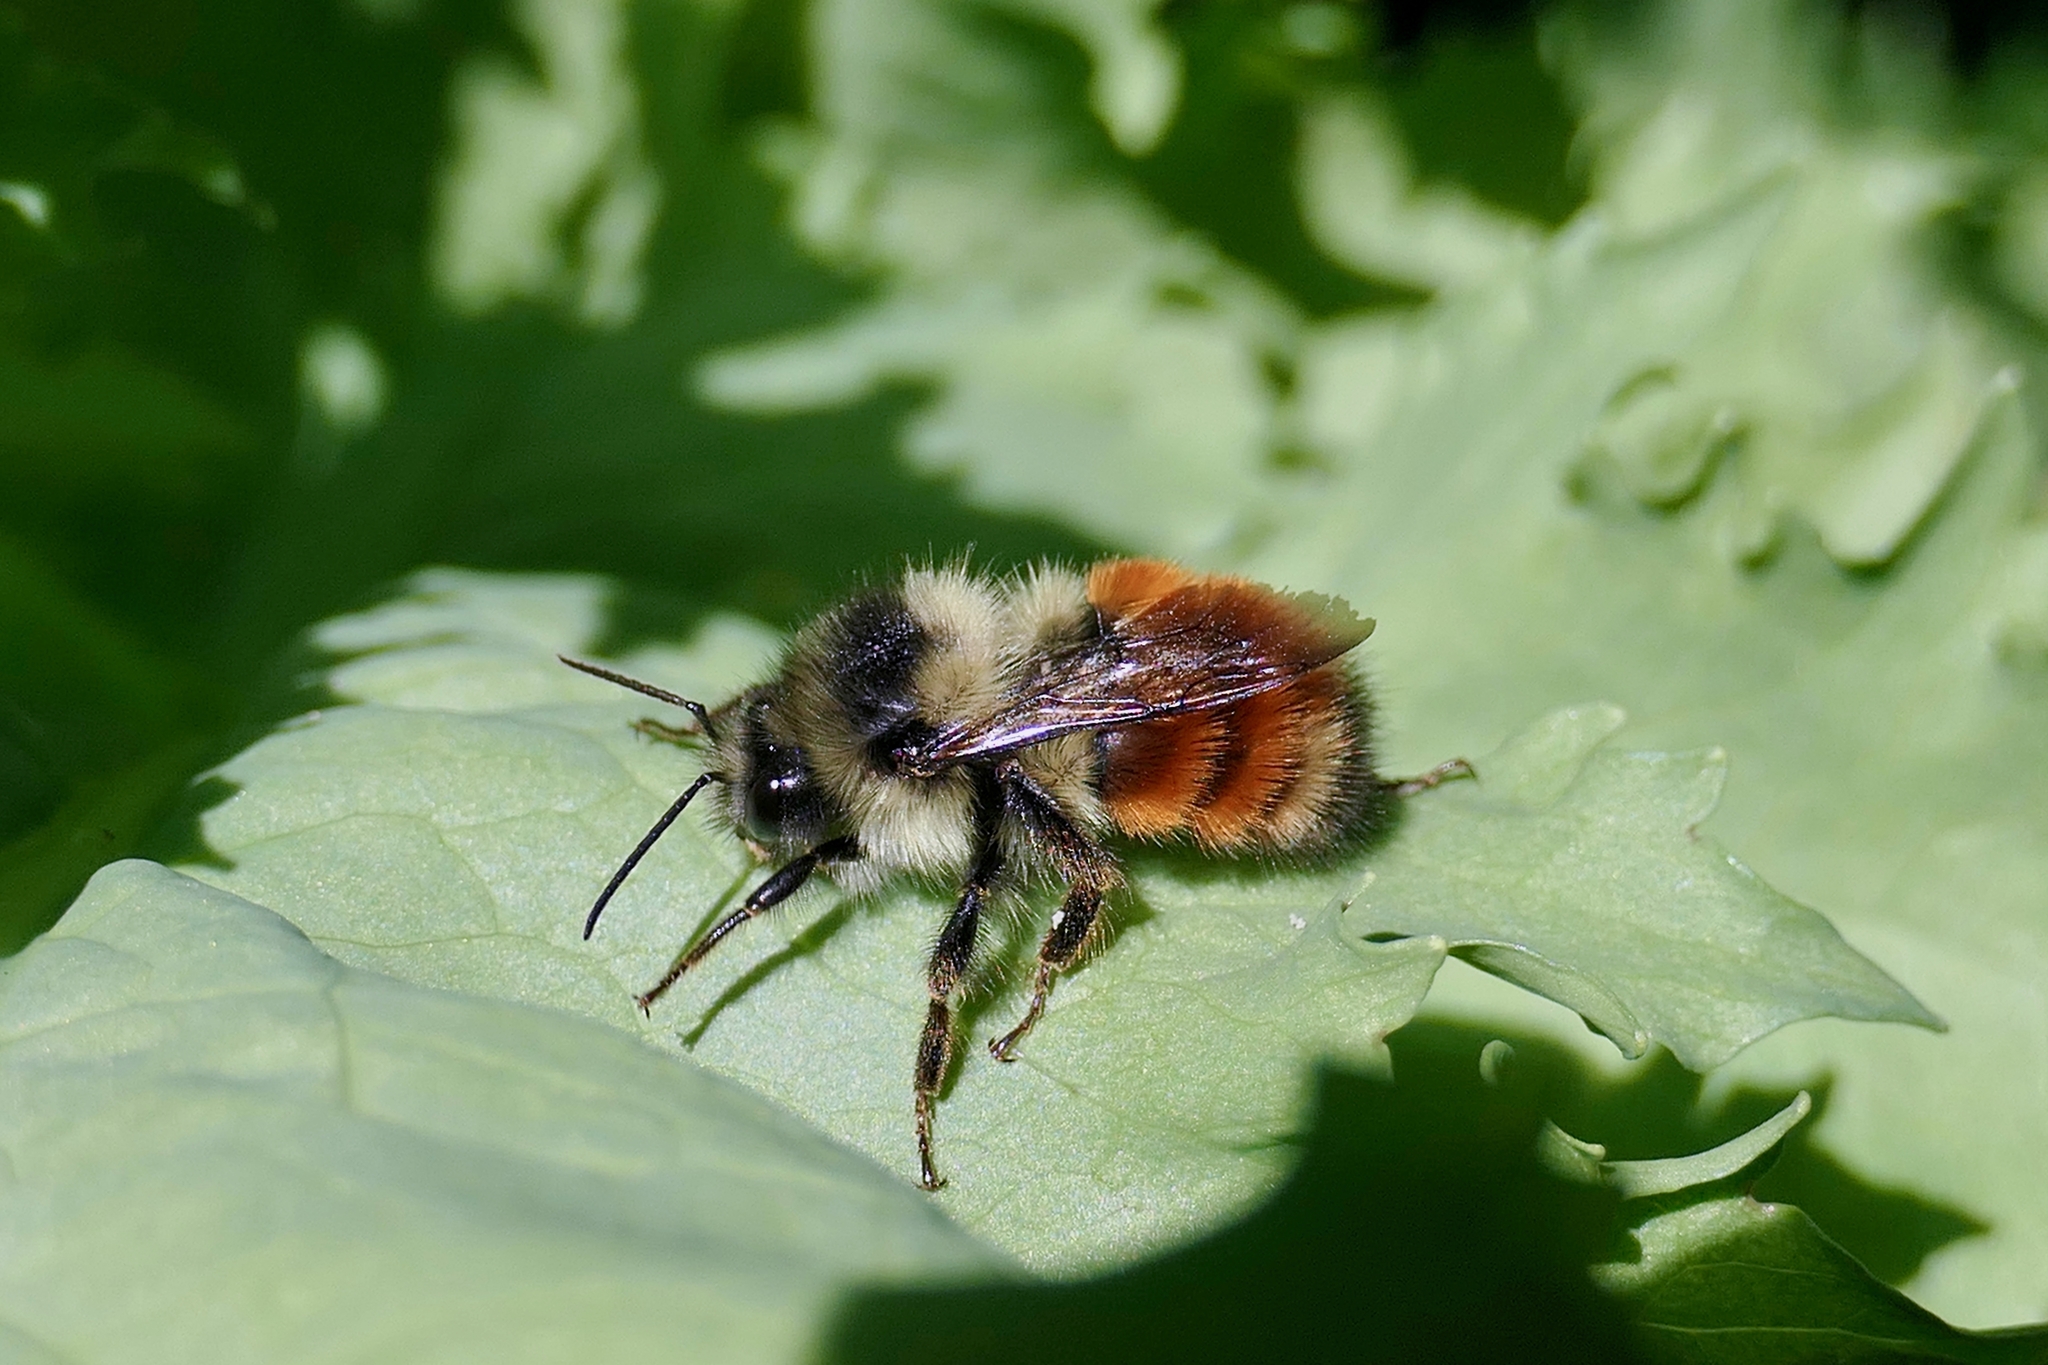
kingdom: Animalia
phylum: Arthropoda
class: Insecta
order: Hymenoptera
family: Apidae
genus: Bombus
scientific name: Bombus melanopygus
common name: Black tail bumble bee
